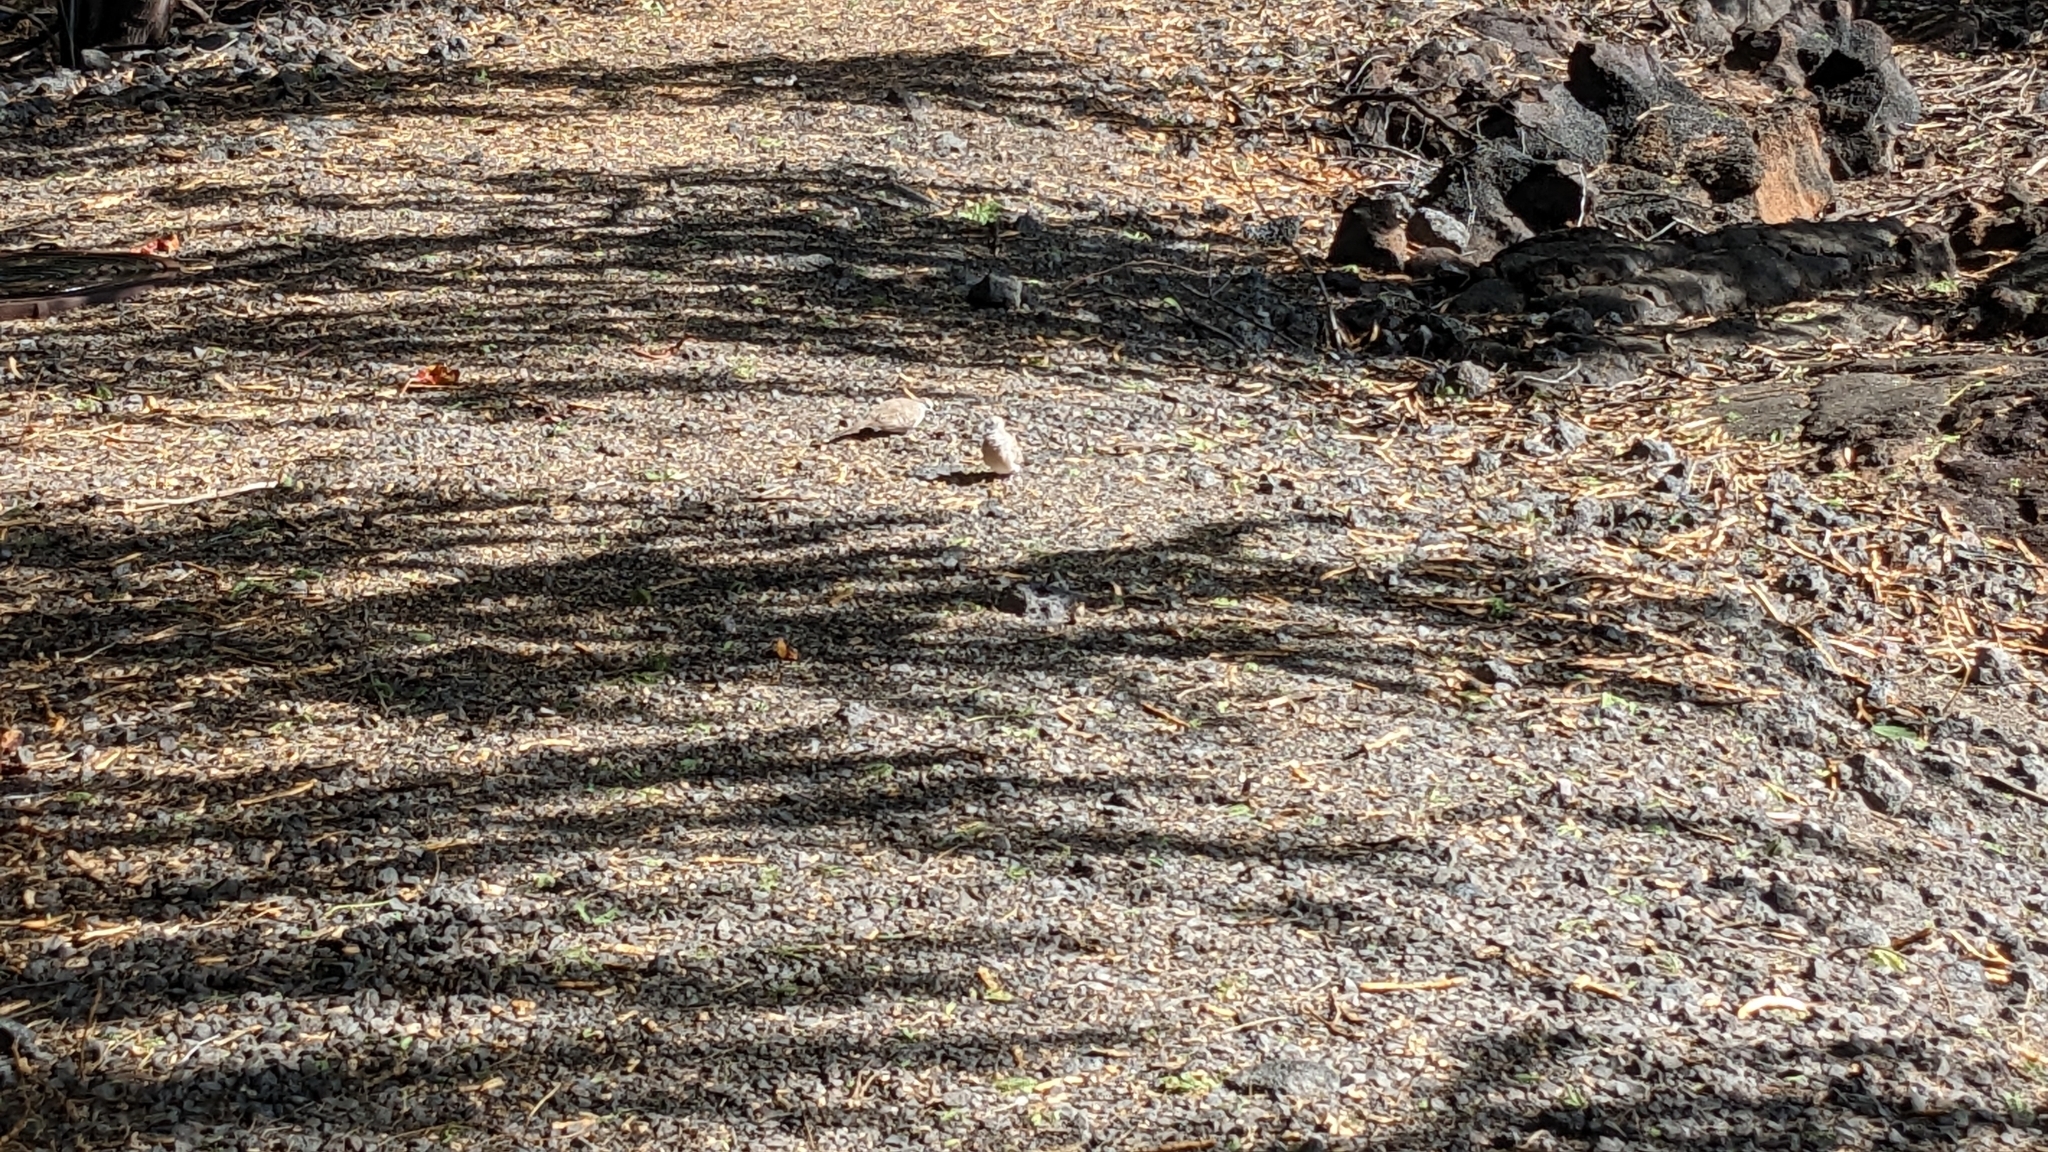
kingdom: Animalia
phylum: Chordata
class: Aves
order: Columbiformes
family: Columbidae
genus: Geopelia
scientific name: Geopelia striata
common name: Zebra dove
